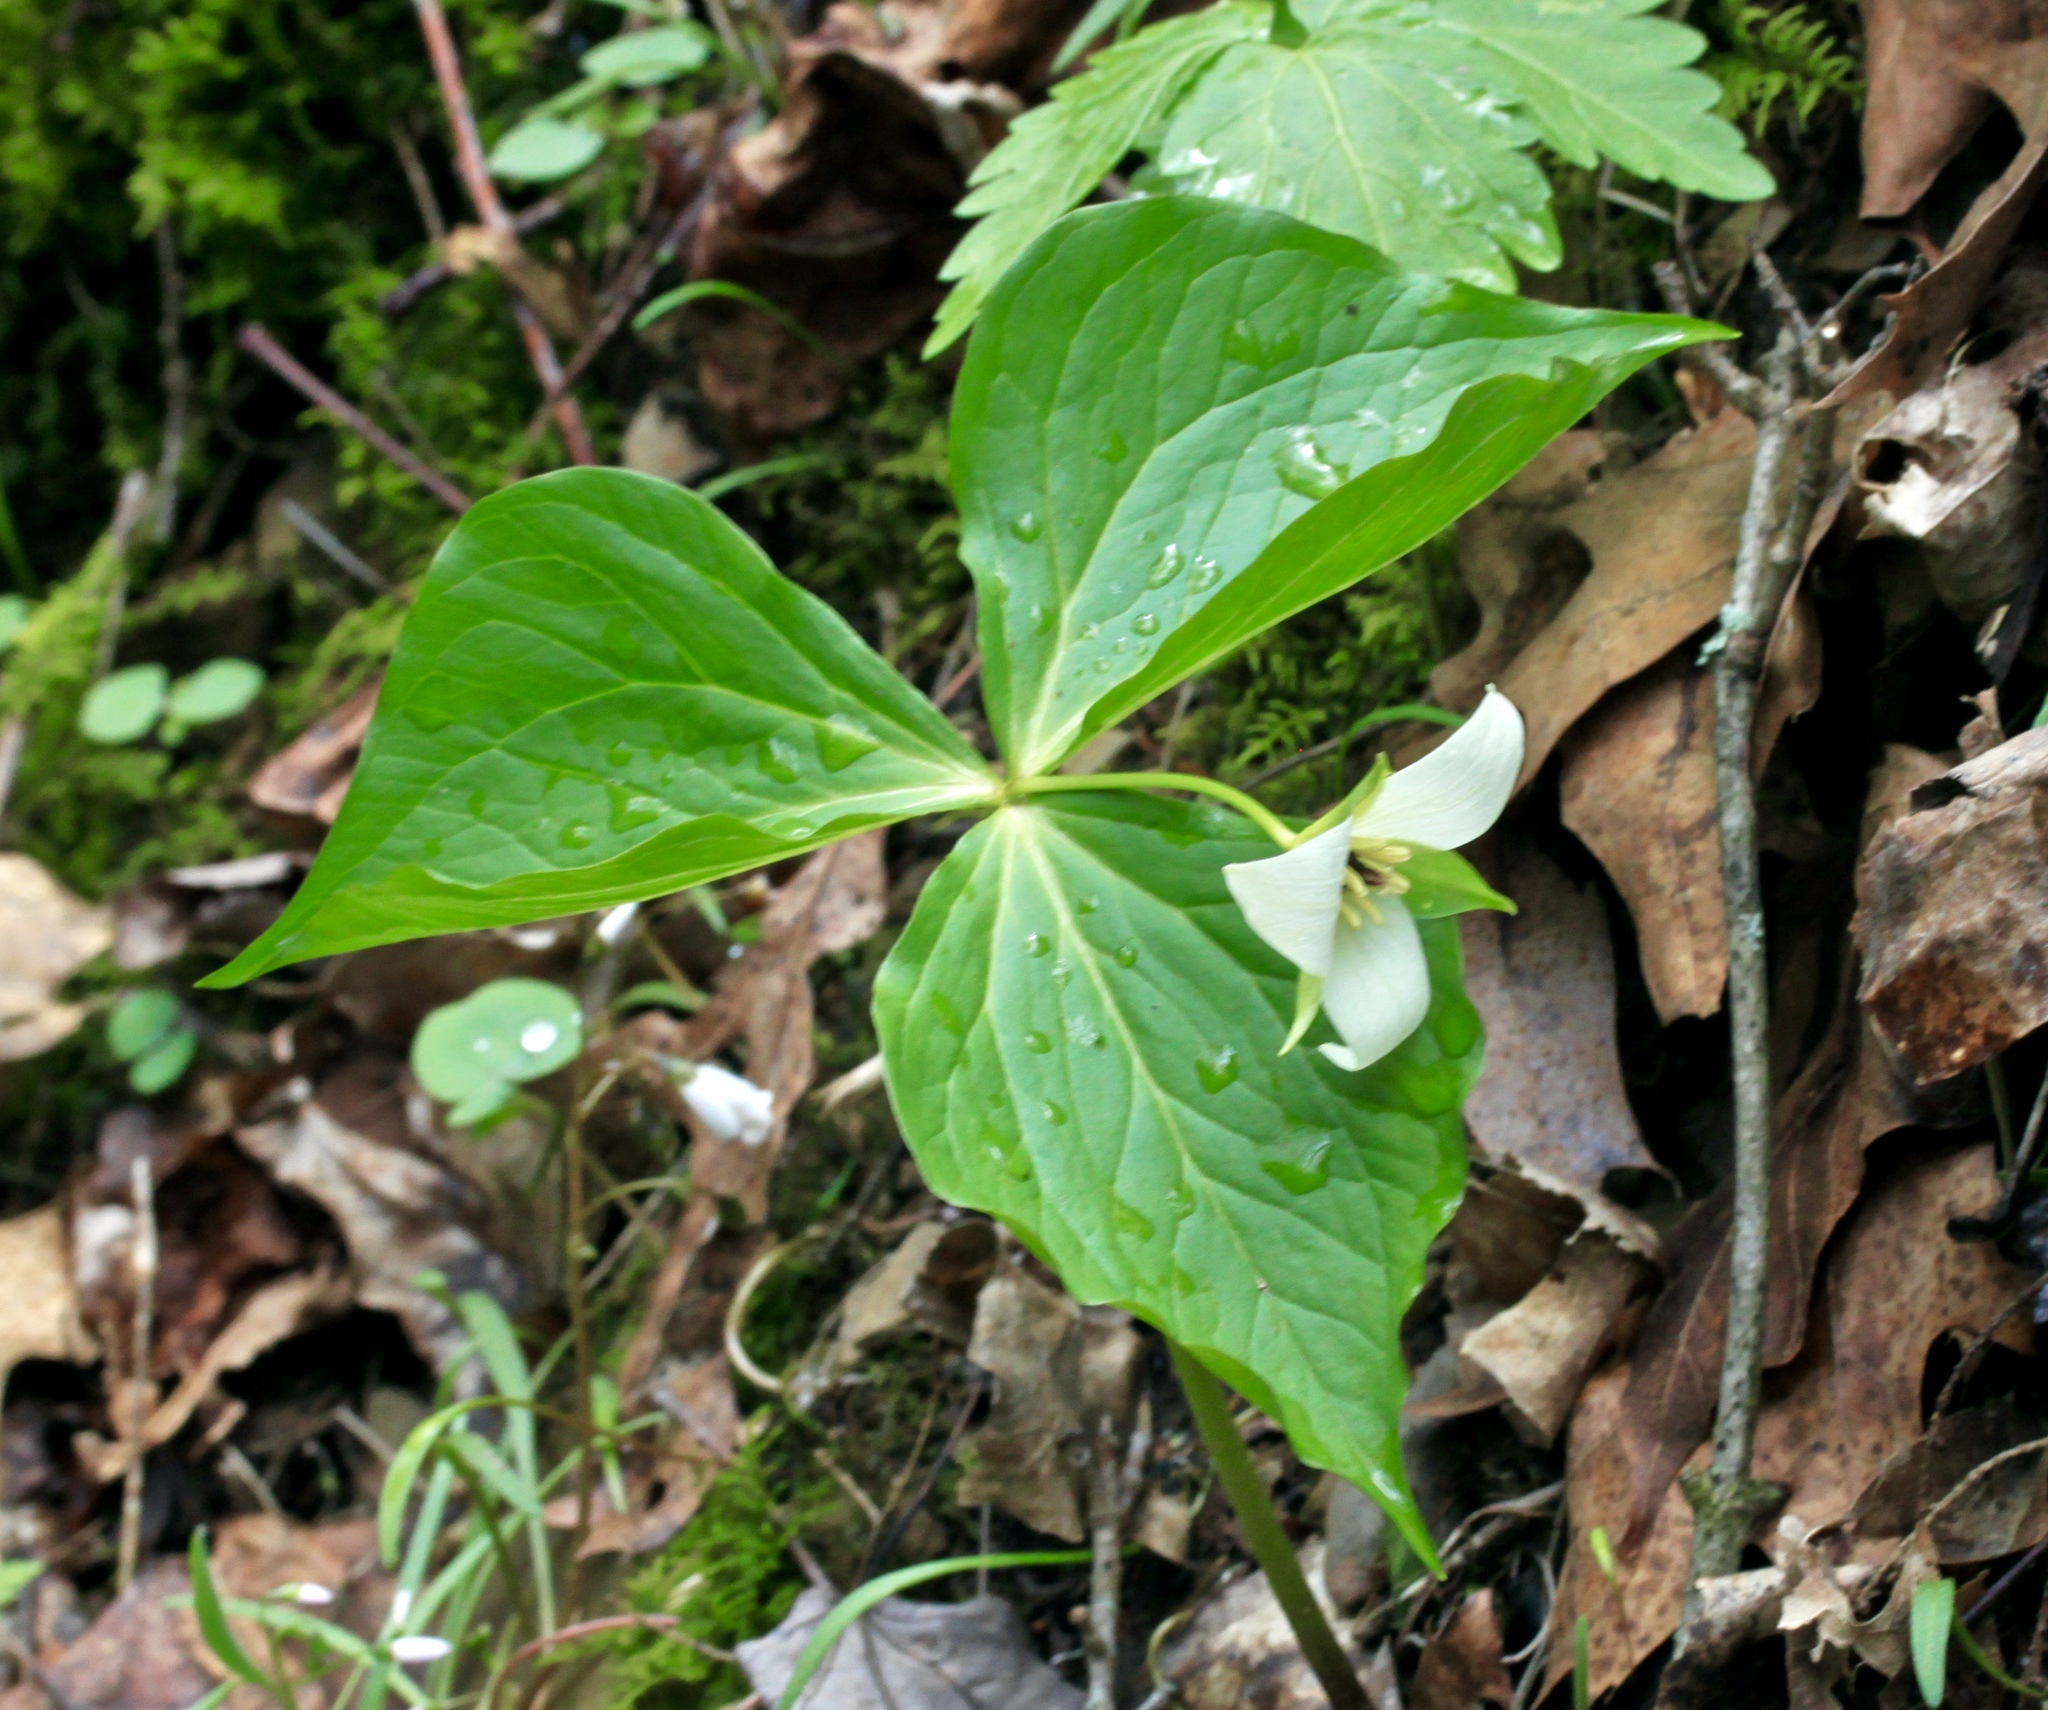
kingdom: Plantae
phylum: Tracheophyta
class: Liliopsida
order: Liliales
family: Melanthiaceae
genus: Trillium
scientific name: Trillium erectum
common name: Purple trillium
